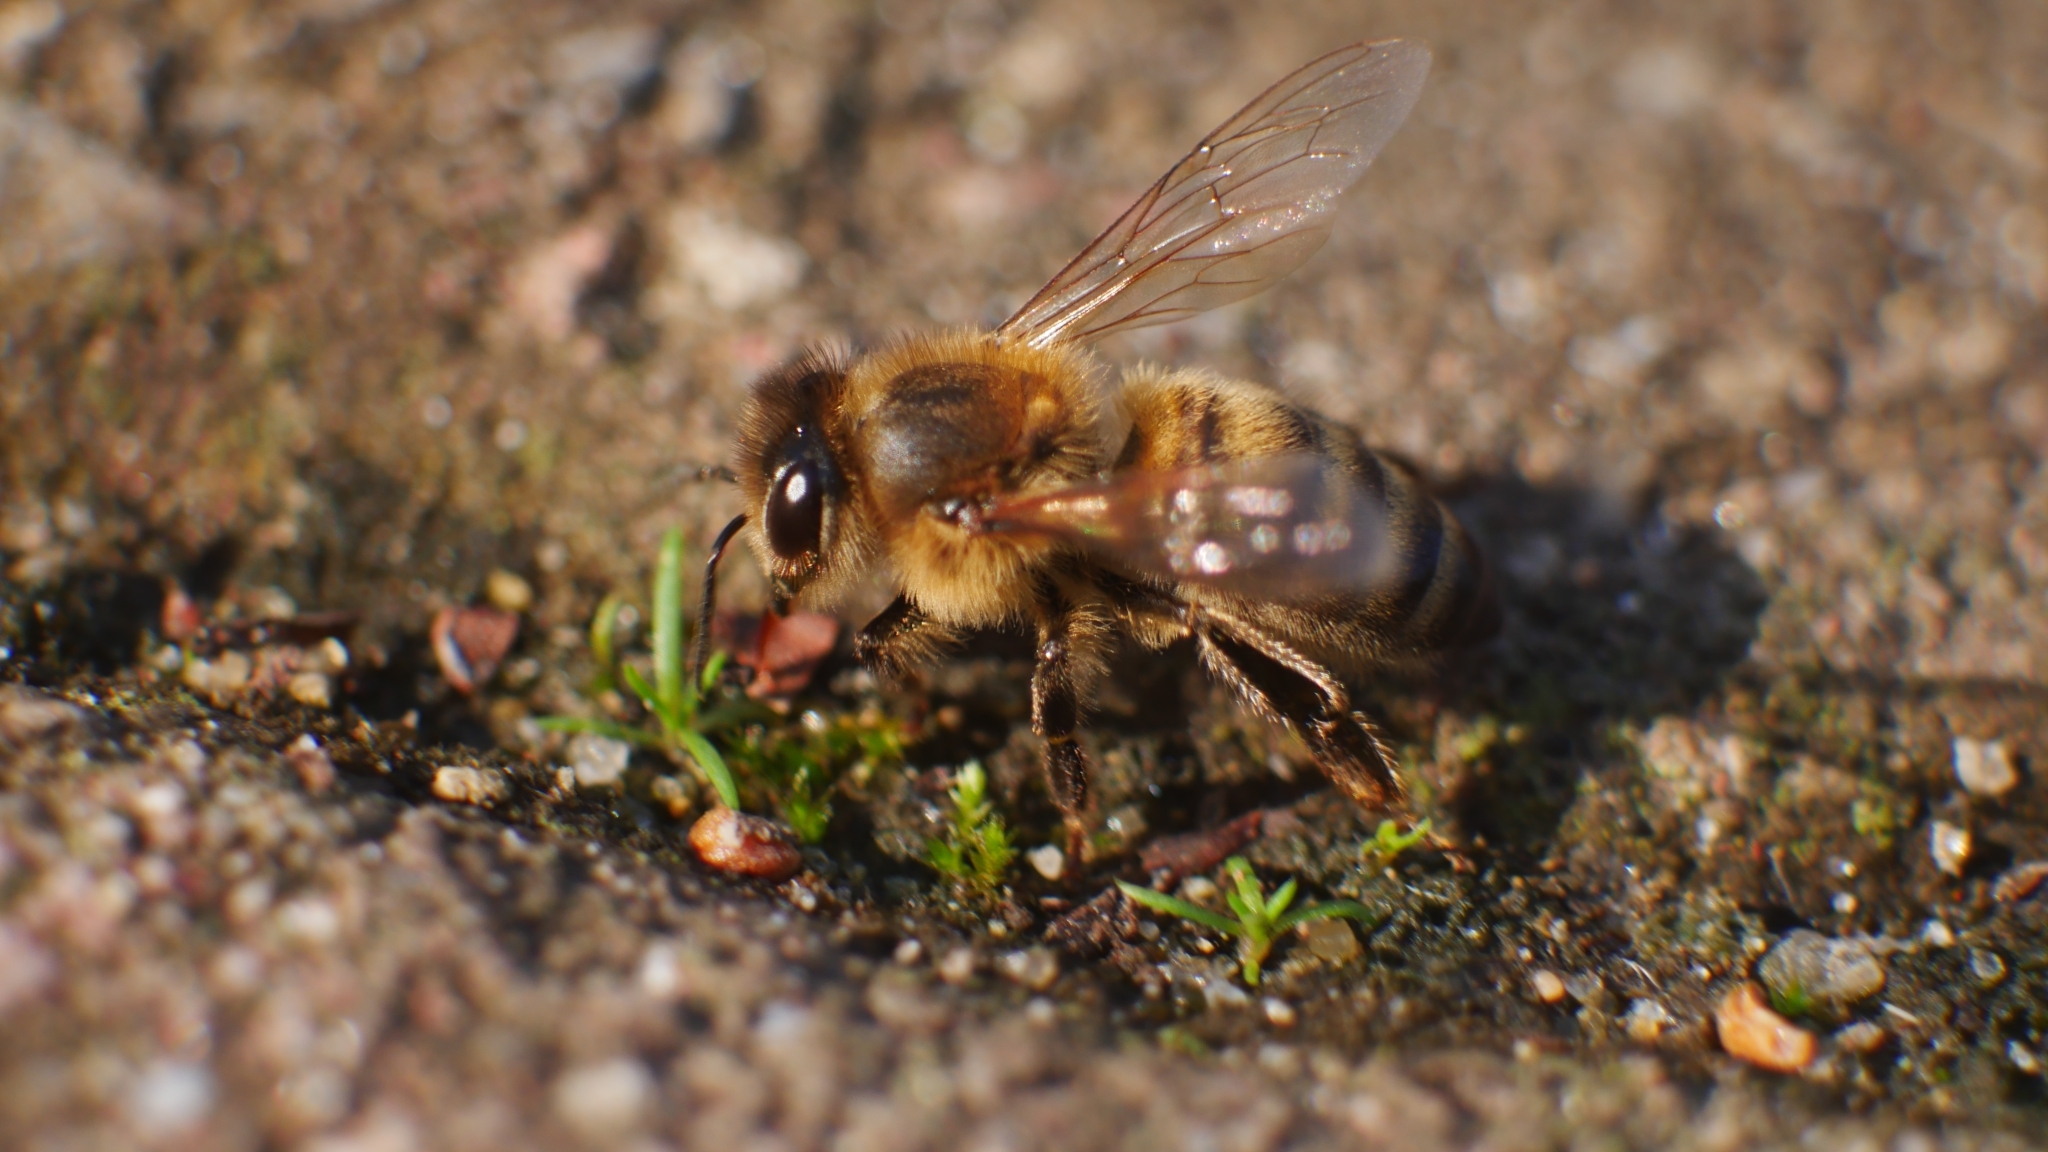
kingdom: Animalia
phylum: Arthropoda
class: Insecta
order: Hymenoptera
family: Apidae
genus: Apis
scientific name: Apis mellifera
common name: Honey bee
